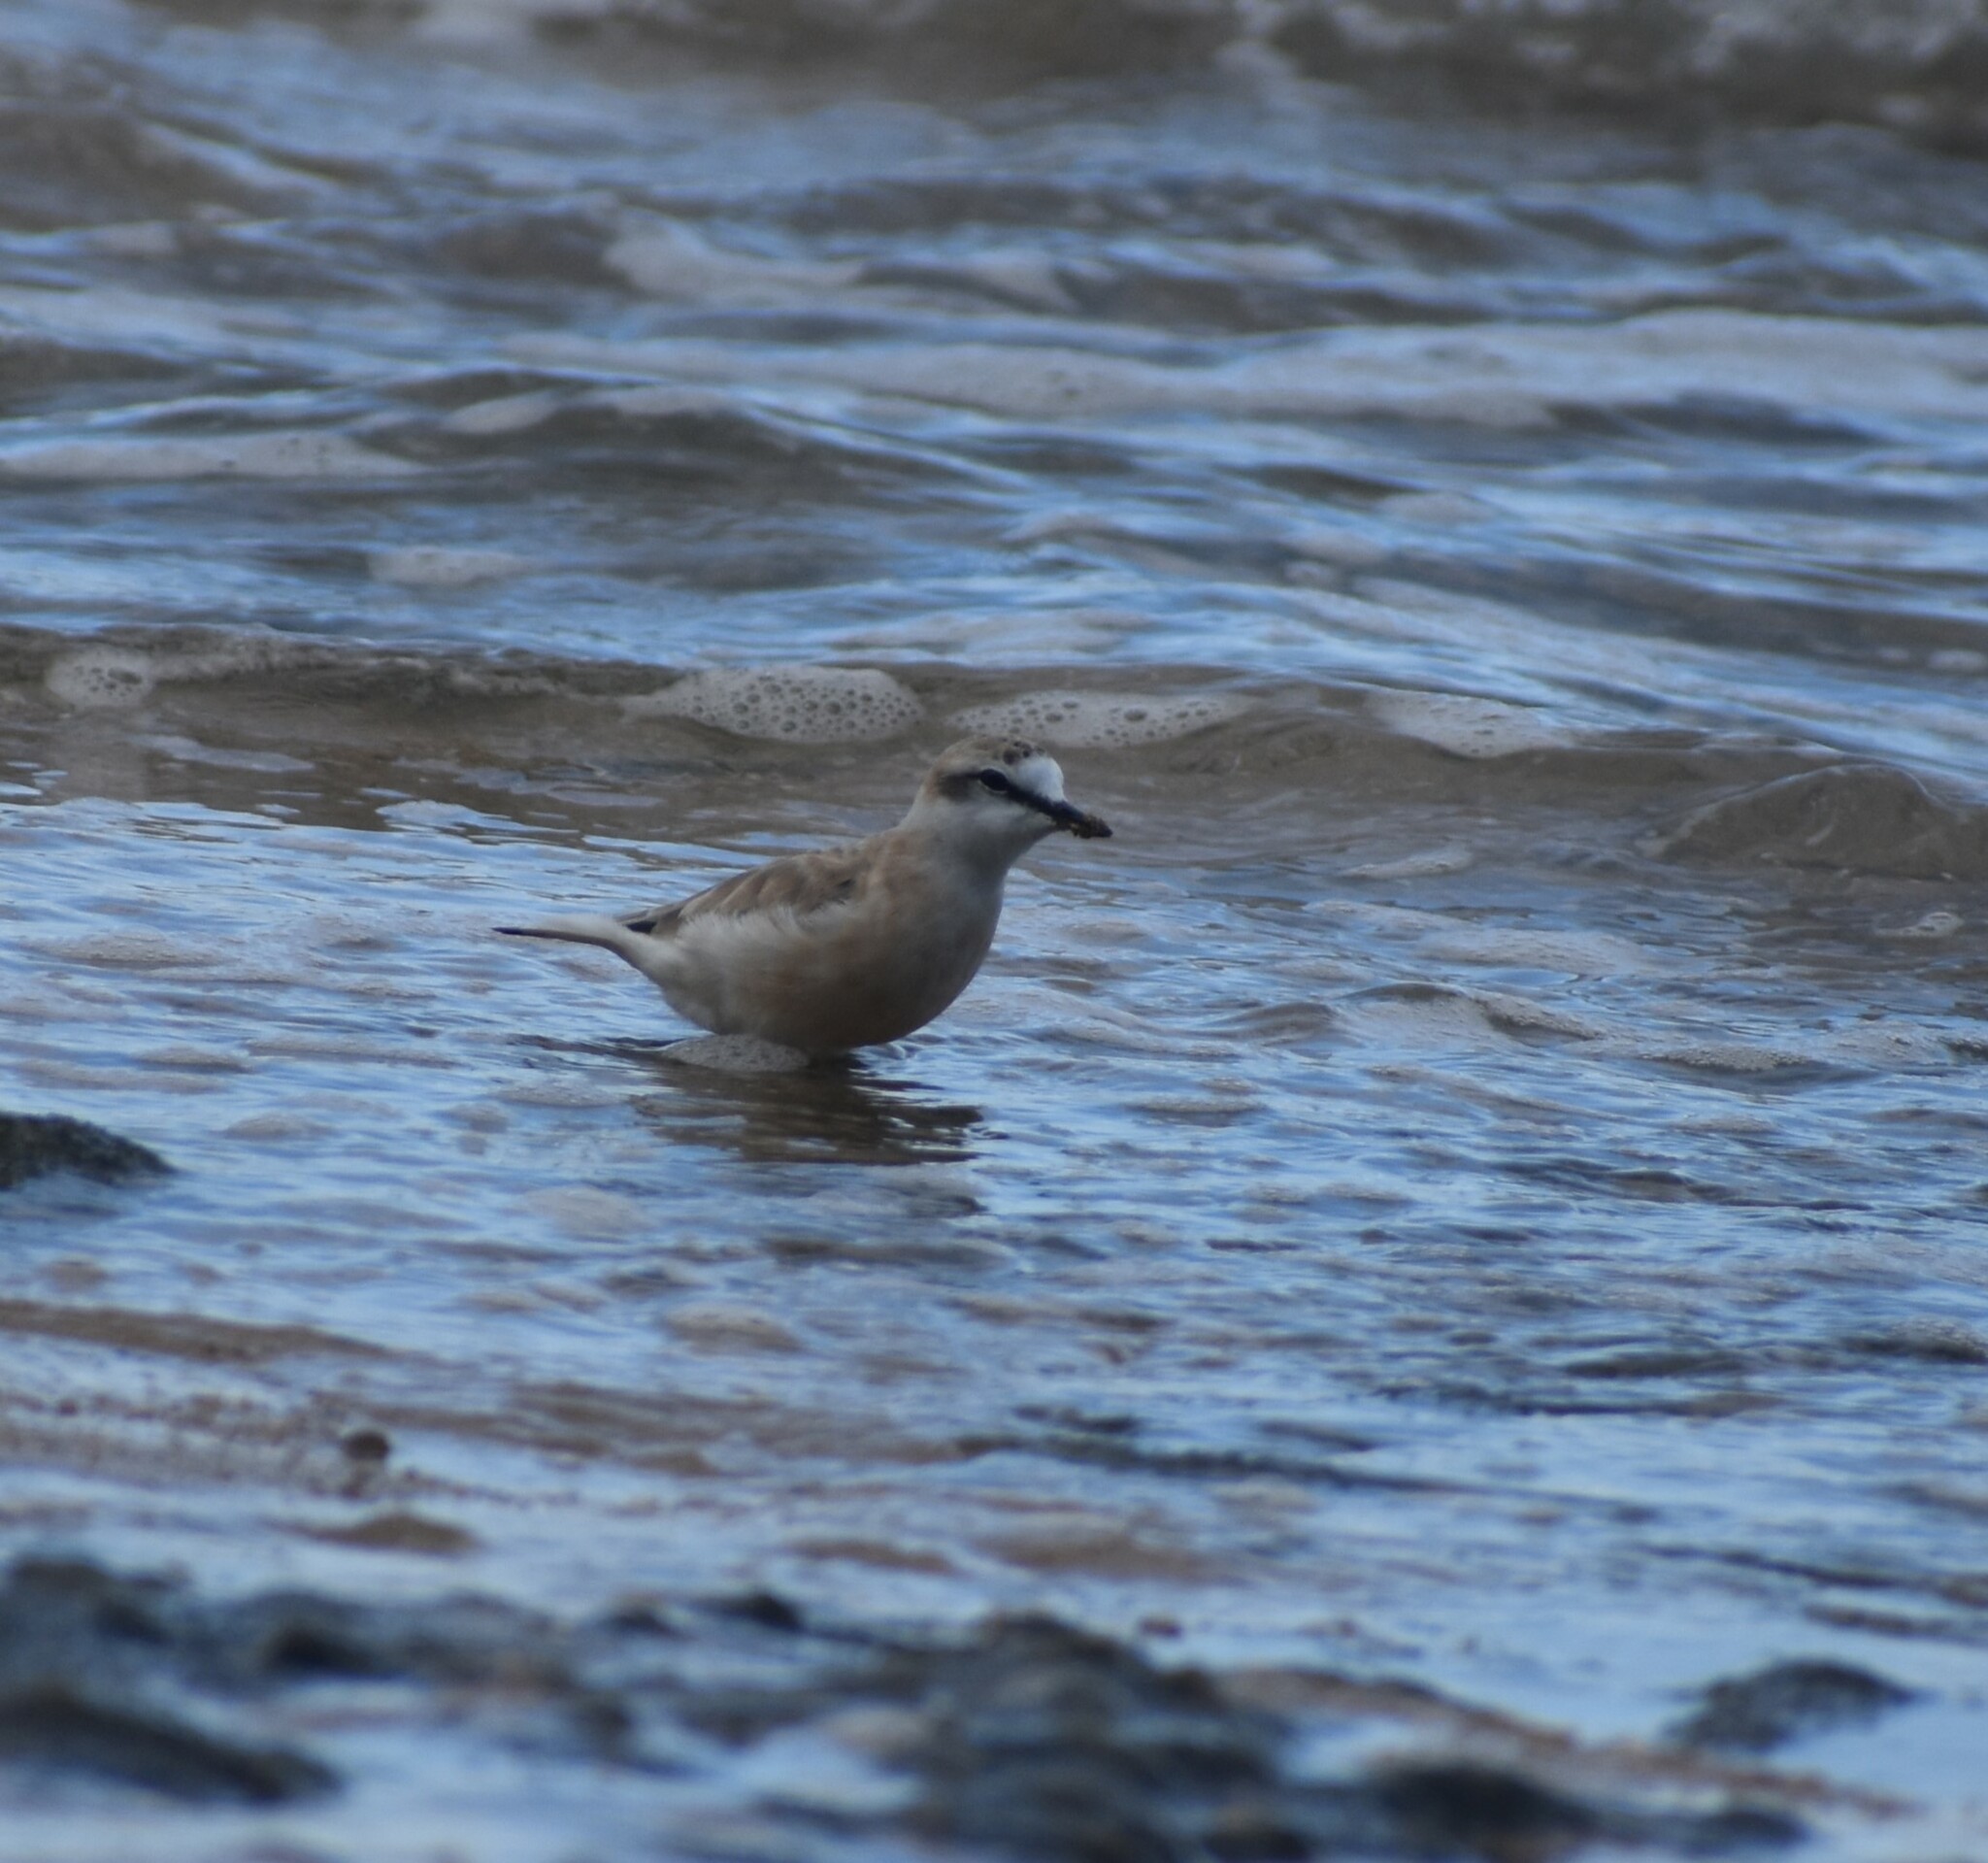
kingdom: Animalia
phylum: Chordata
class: Aves
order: Charadriiformes
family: Charadriidae
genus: Anarhynchus
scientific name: Anarhynchus
